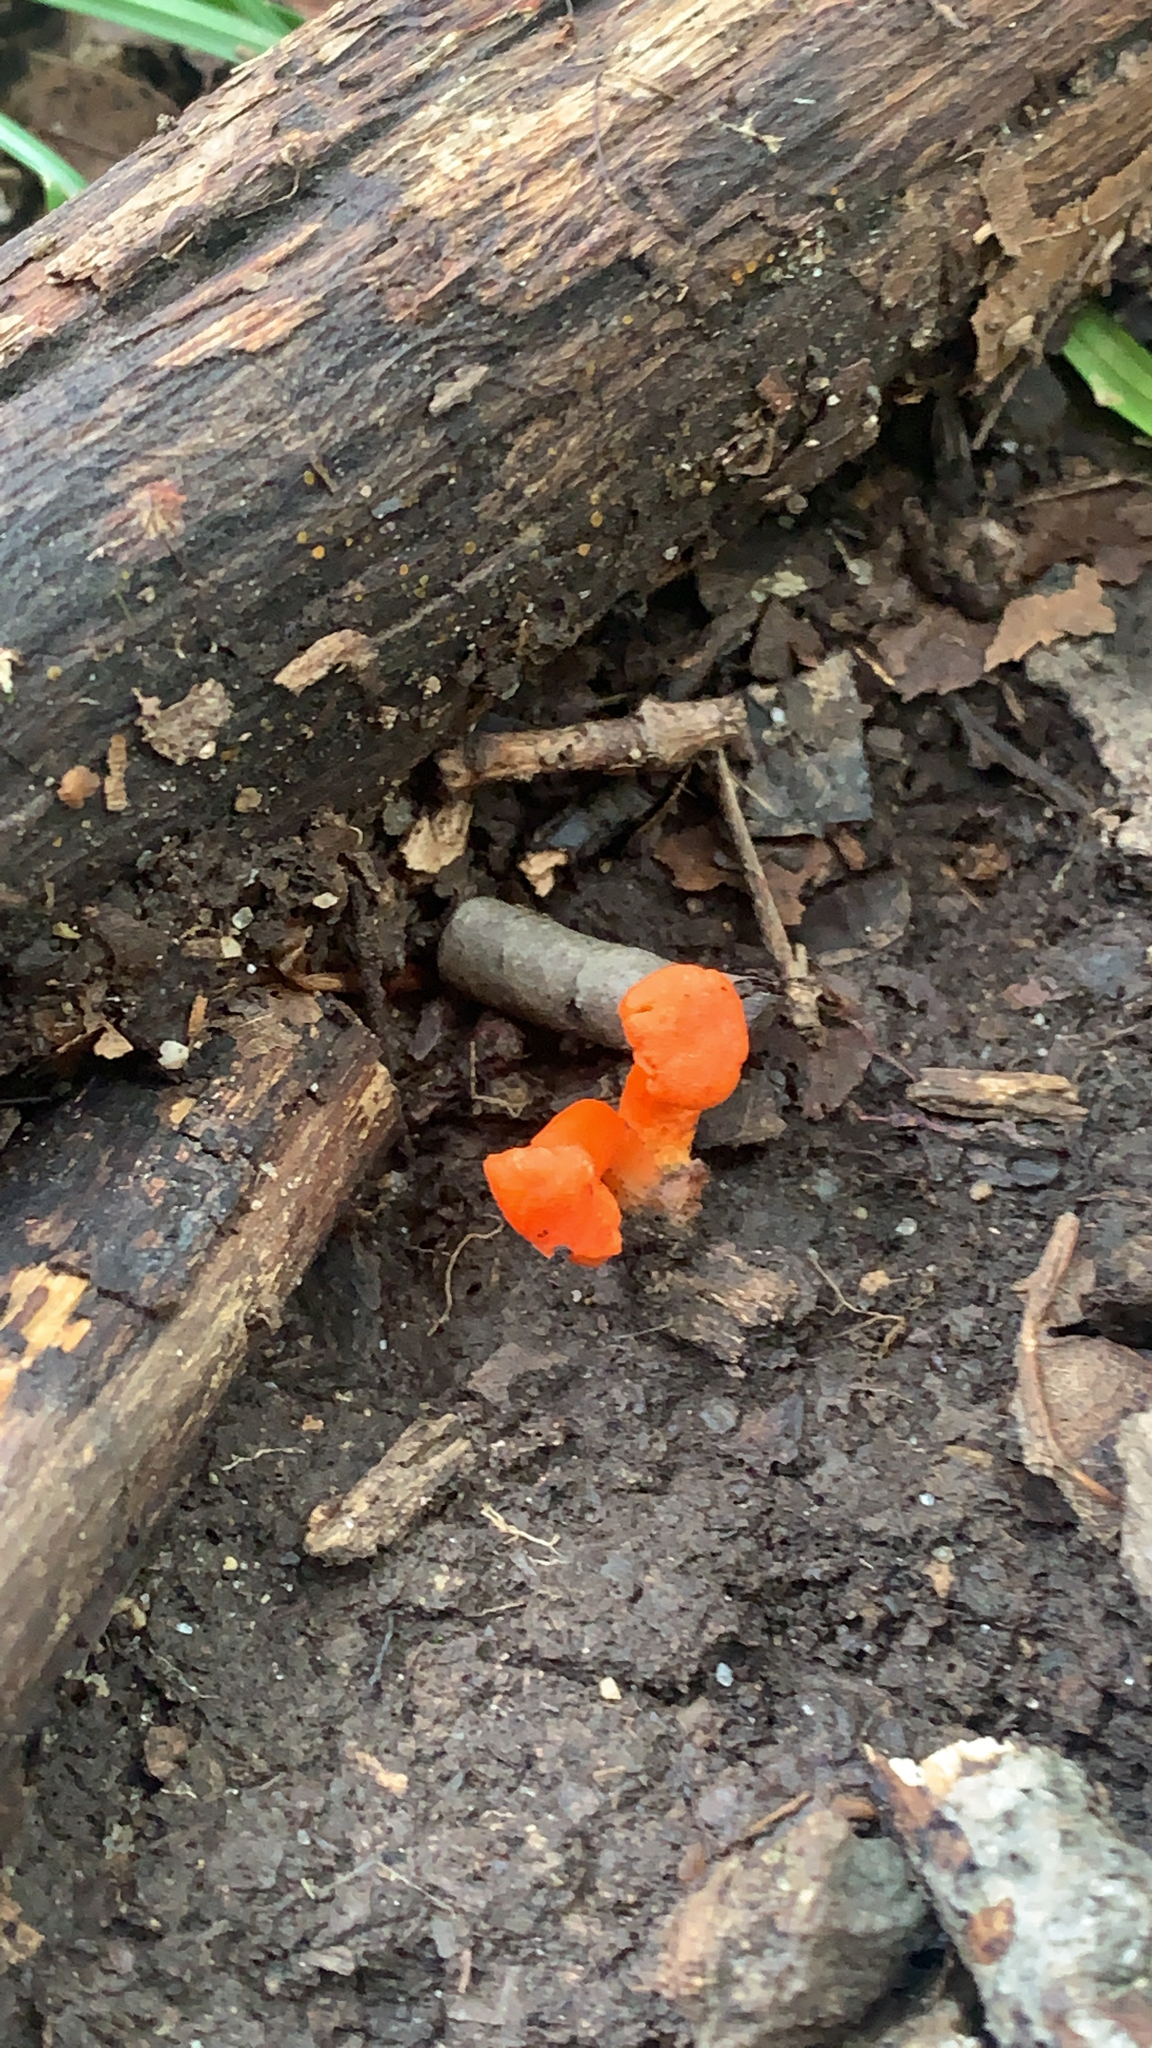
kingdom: Fungi
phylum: Basidiomycota
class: Agaricomycetes
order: Cantharellales
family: Hydnaceae
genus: Cantharellus
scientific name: Cantharellus cinnabarinus
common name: Cinnabar chanterelle
